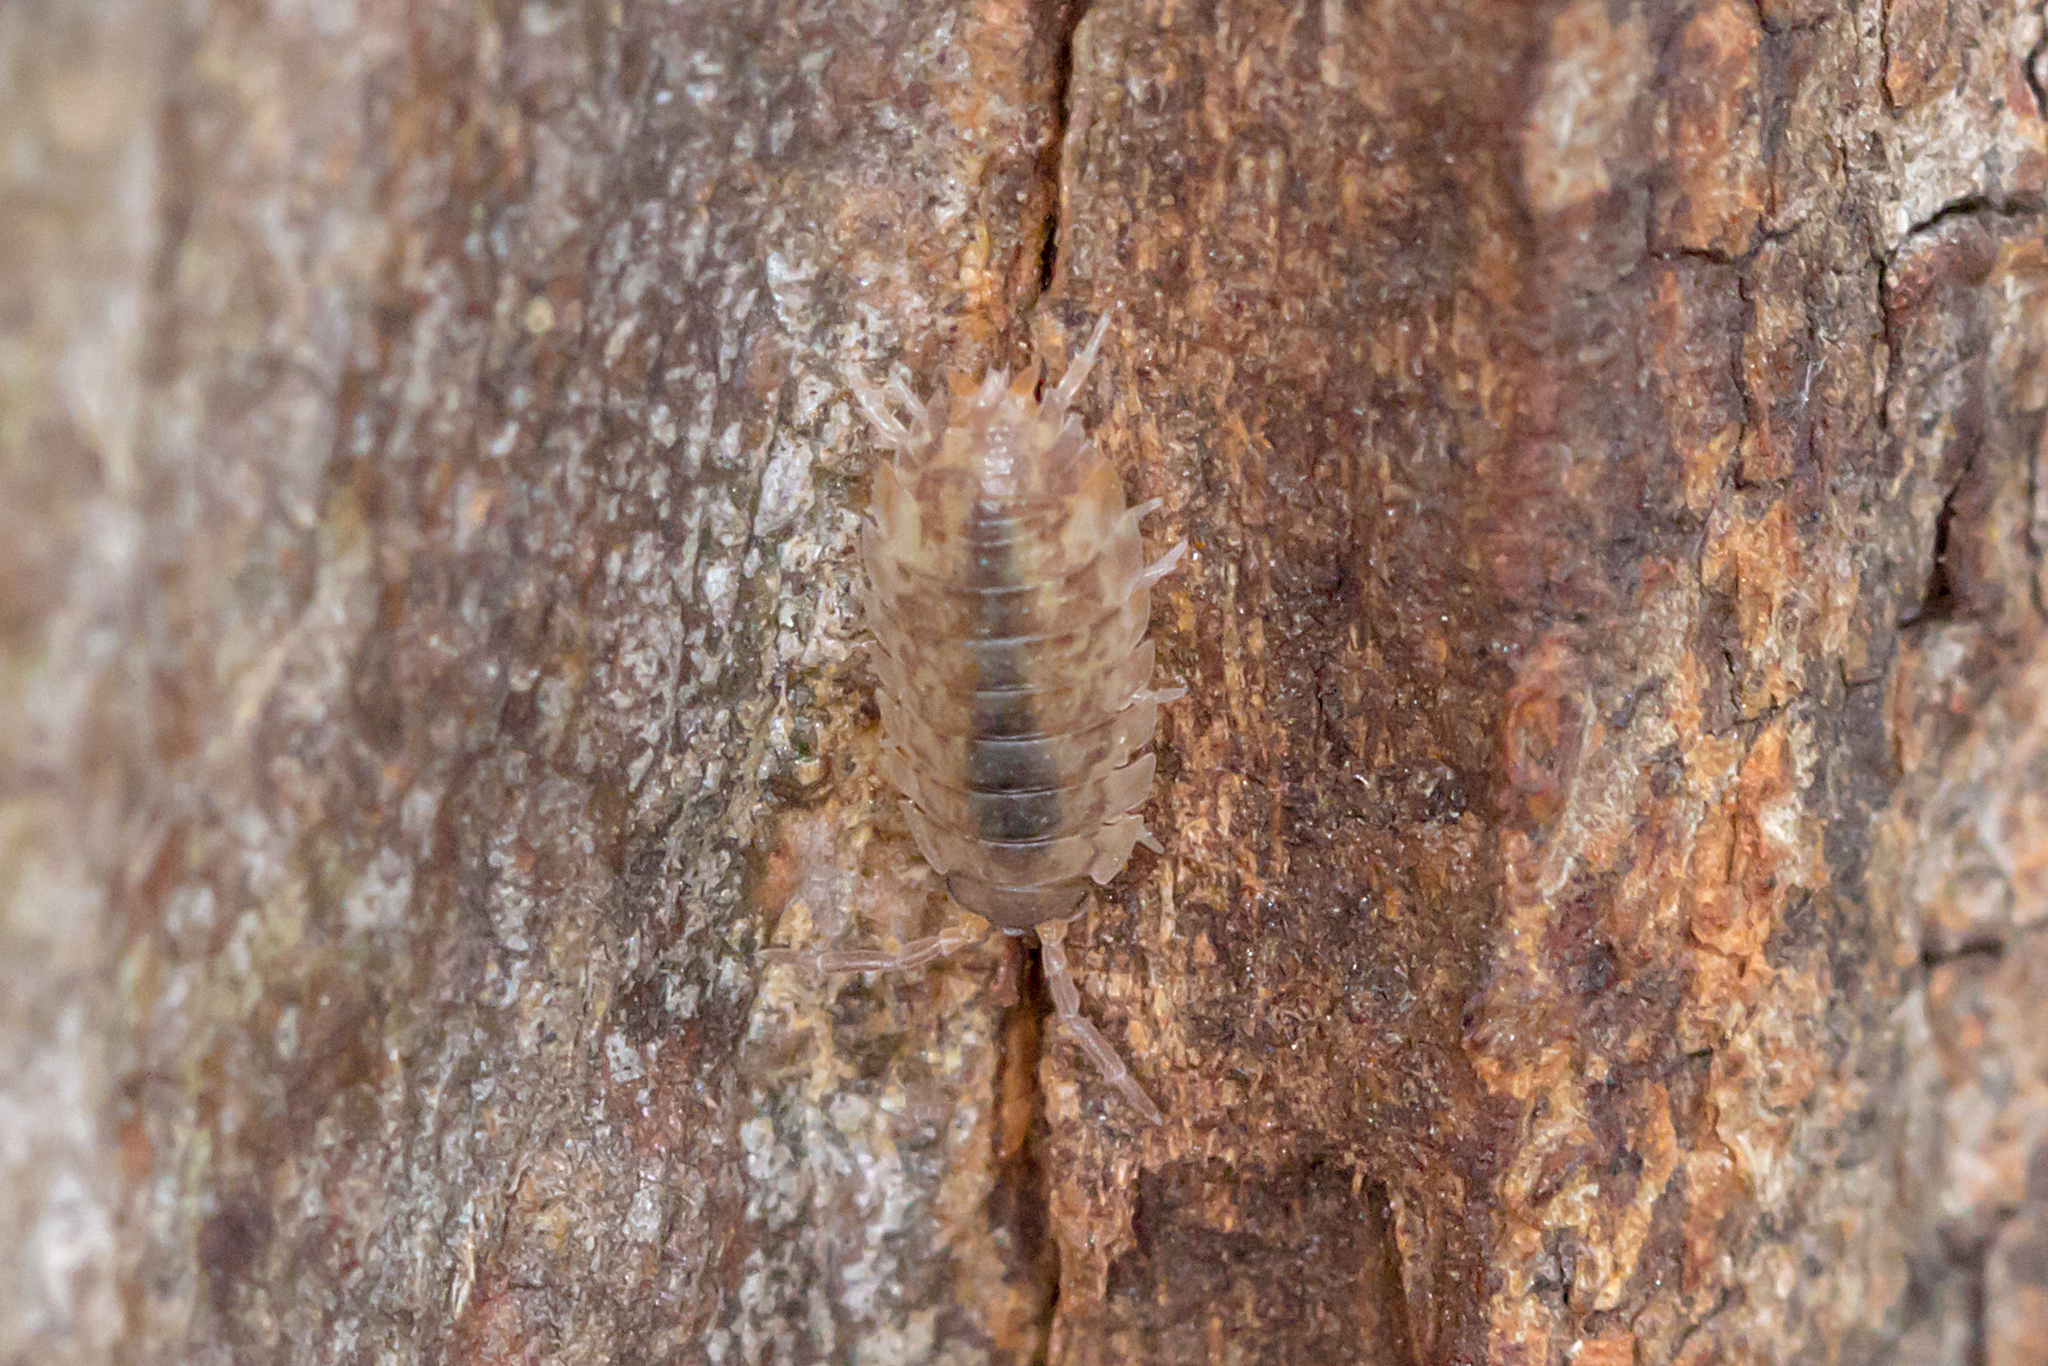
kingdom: Animalia
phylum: Arthropoda
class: Malacostraca
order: Isopoda
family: Porcellionidae
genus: Porcellio
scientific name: Porcellio scaber
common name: Common rough woodlouse
